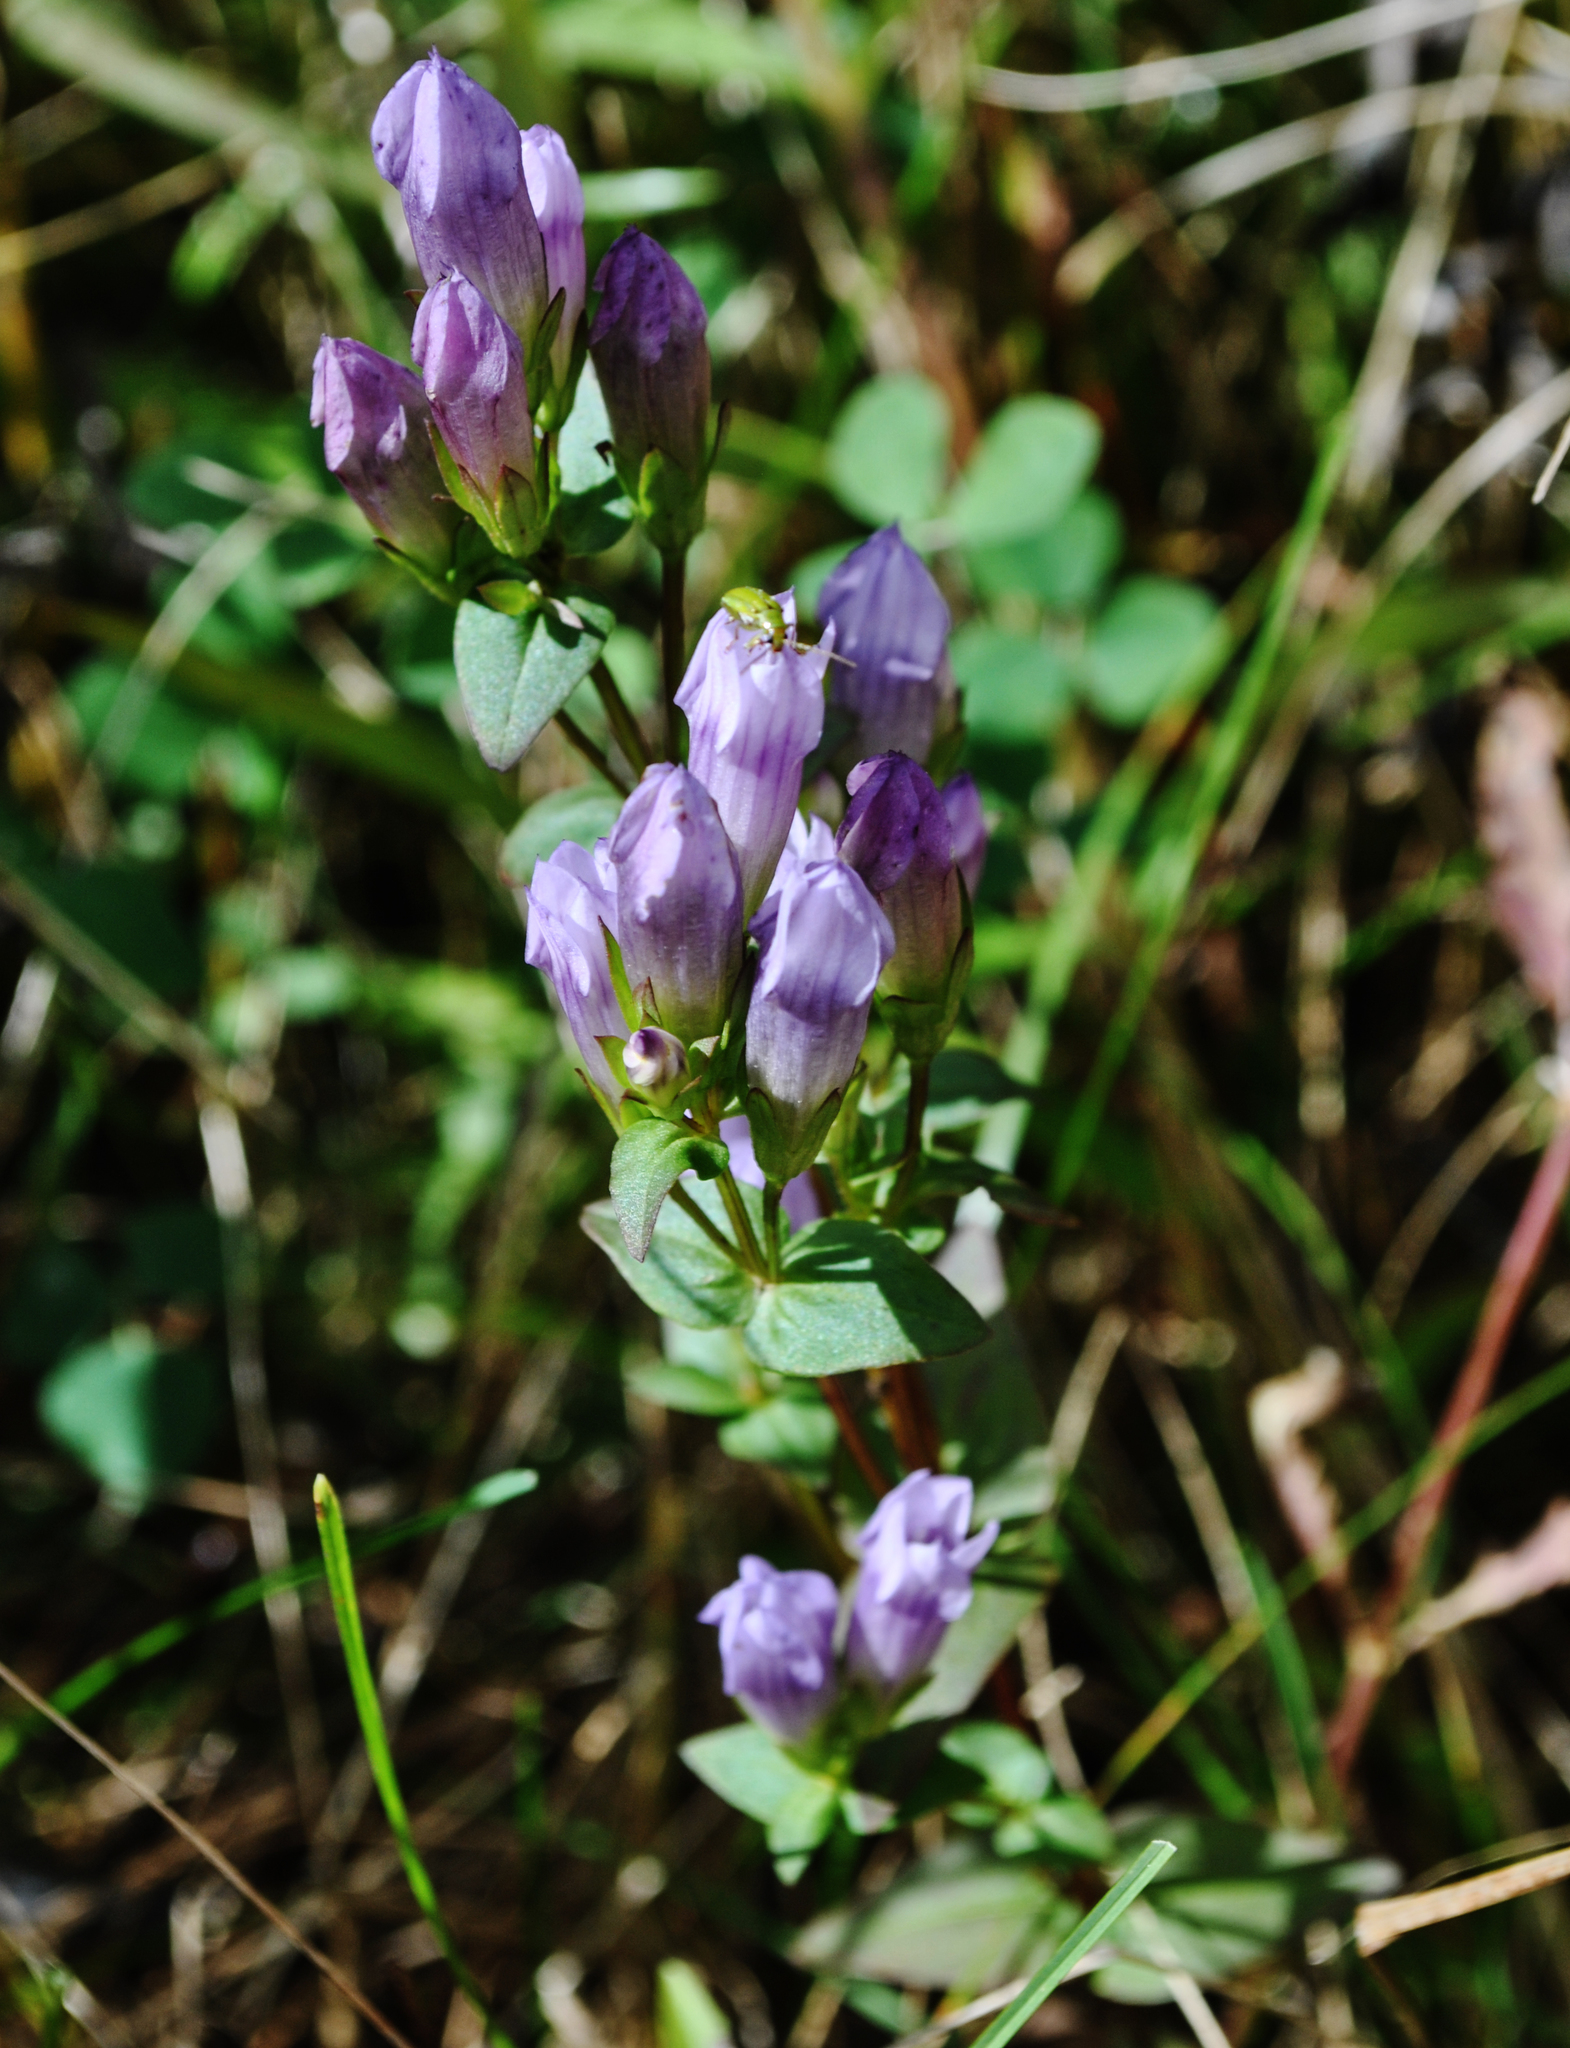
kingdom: Plantae
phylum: Tracheophyta
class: Magnoliopsida
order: Gentianales
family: Gentianaceae
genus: Gentianella
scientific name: Gentianella quinquefolia
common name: Agueweed
